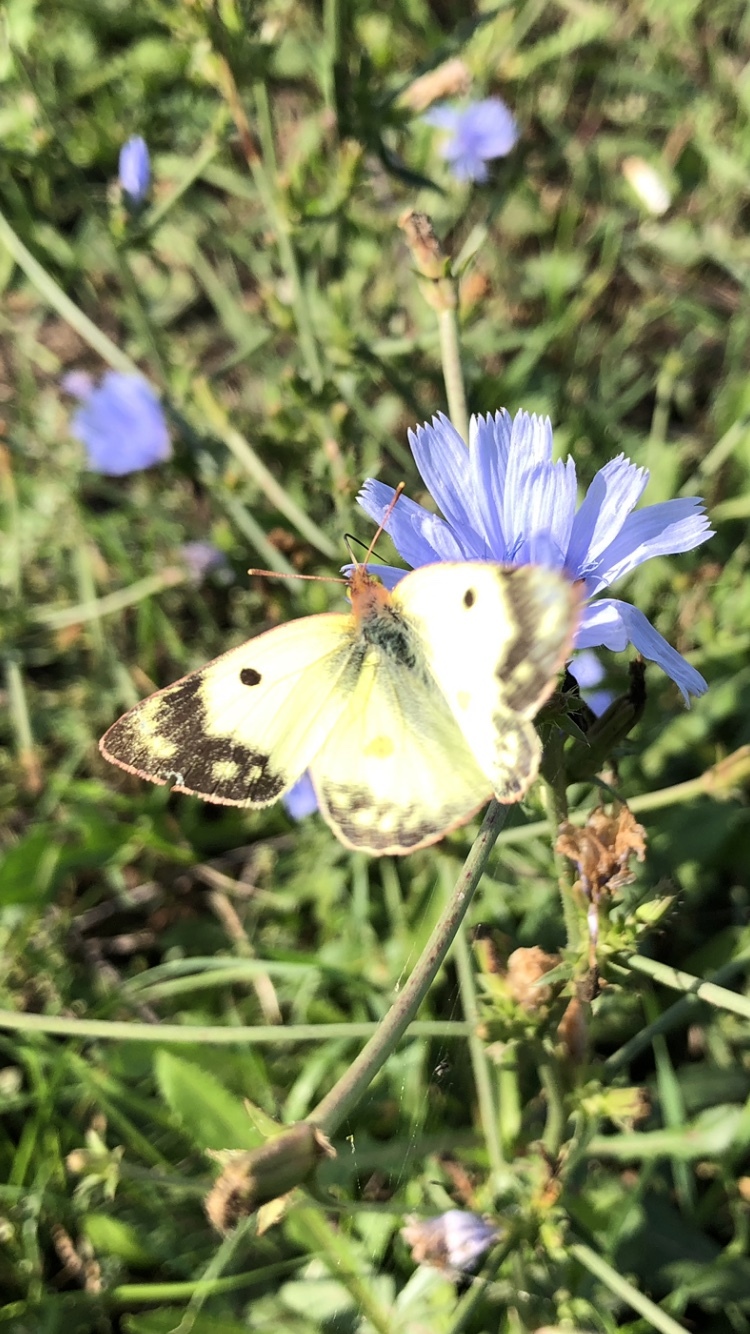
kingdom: Animalia
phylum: Arthropoda
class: Insecta
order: Lepidoptera
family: Pieridae
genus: Colias
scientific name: Colias hyale
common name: Pale clouded yellow
